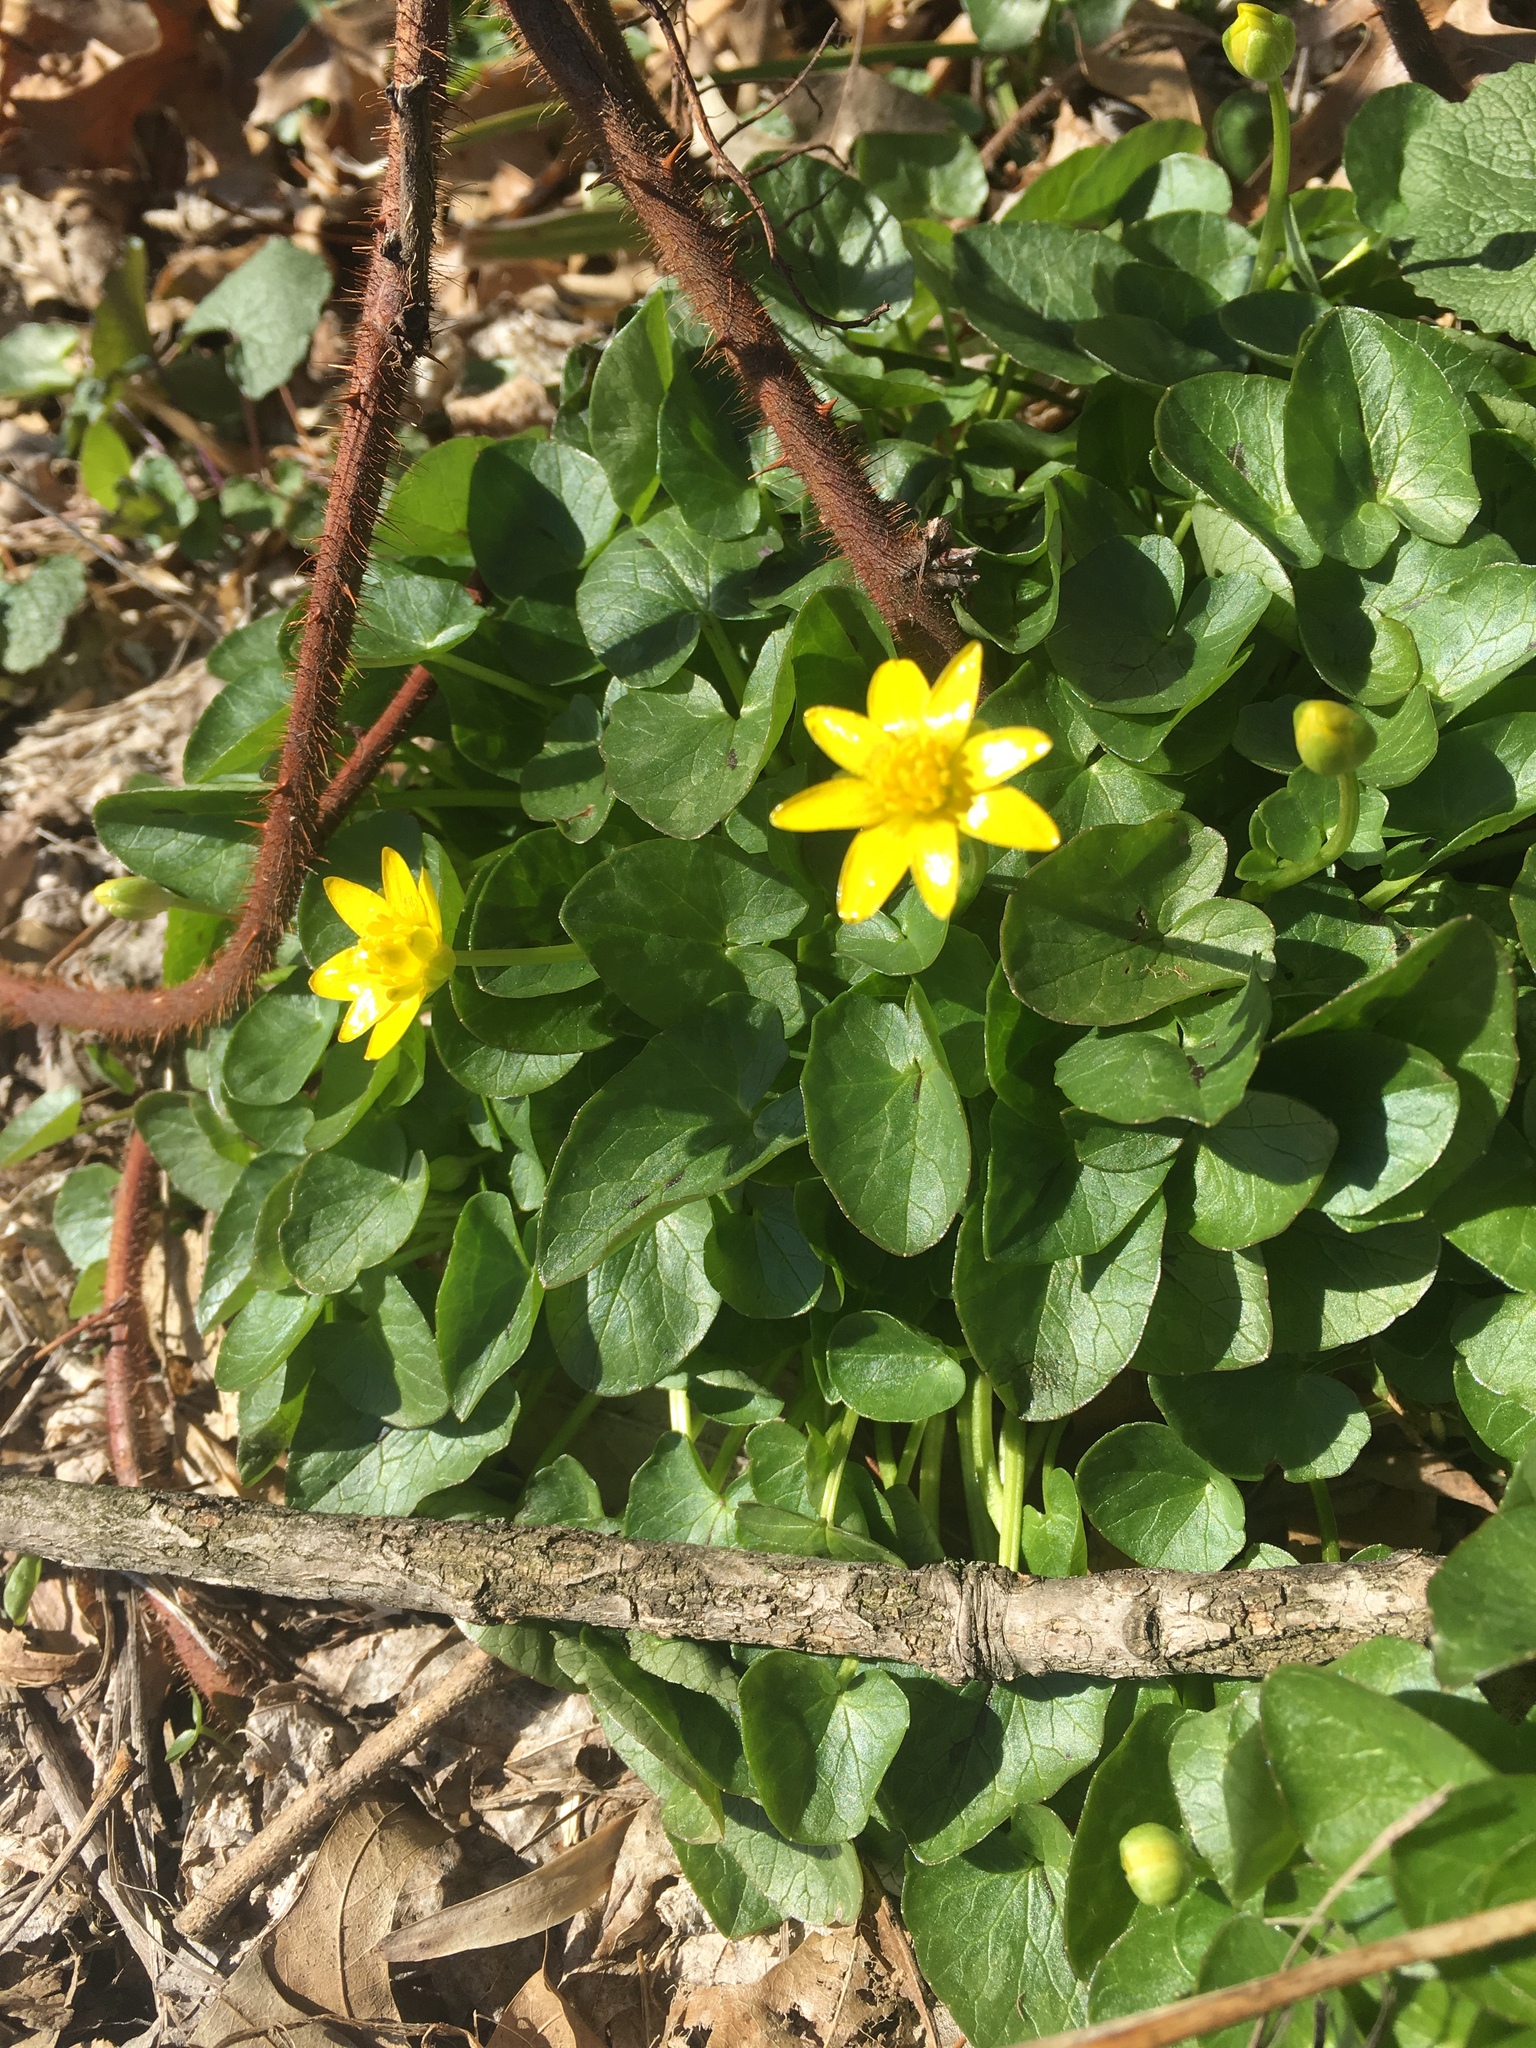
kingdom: Plantae
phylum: Tracheophyta
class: Magnoliopsida
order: Ranunculales
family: Ranunculaceae
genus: Ficaria
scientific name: Ficaria verna
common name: Lesser celandine
